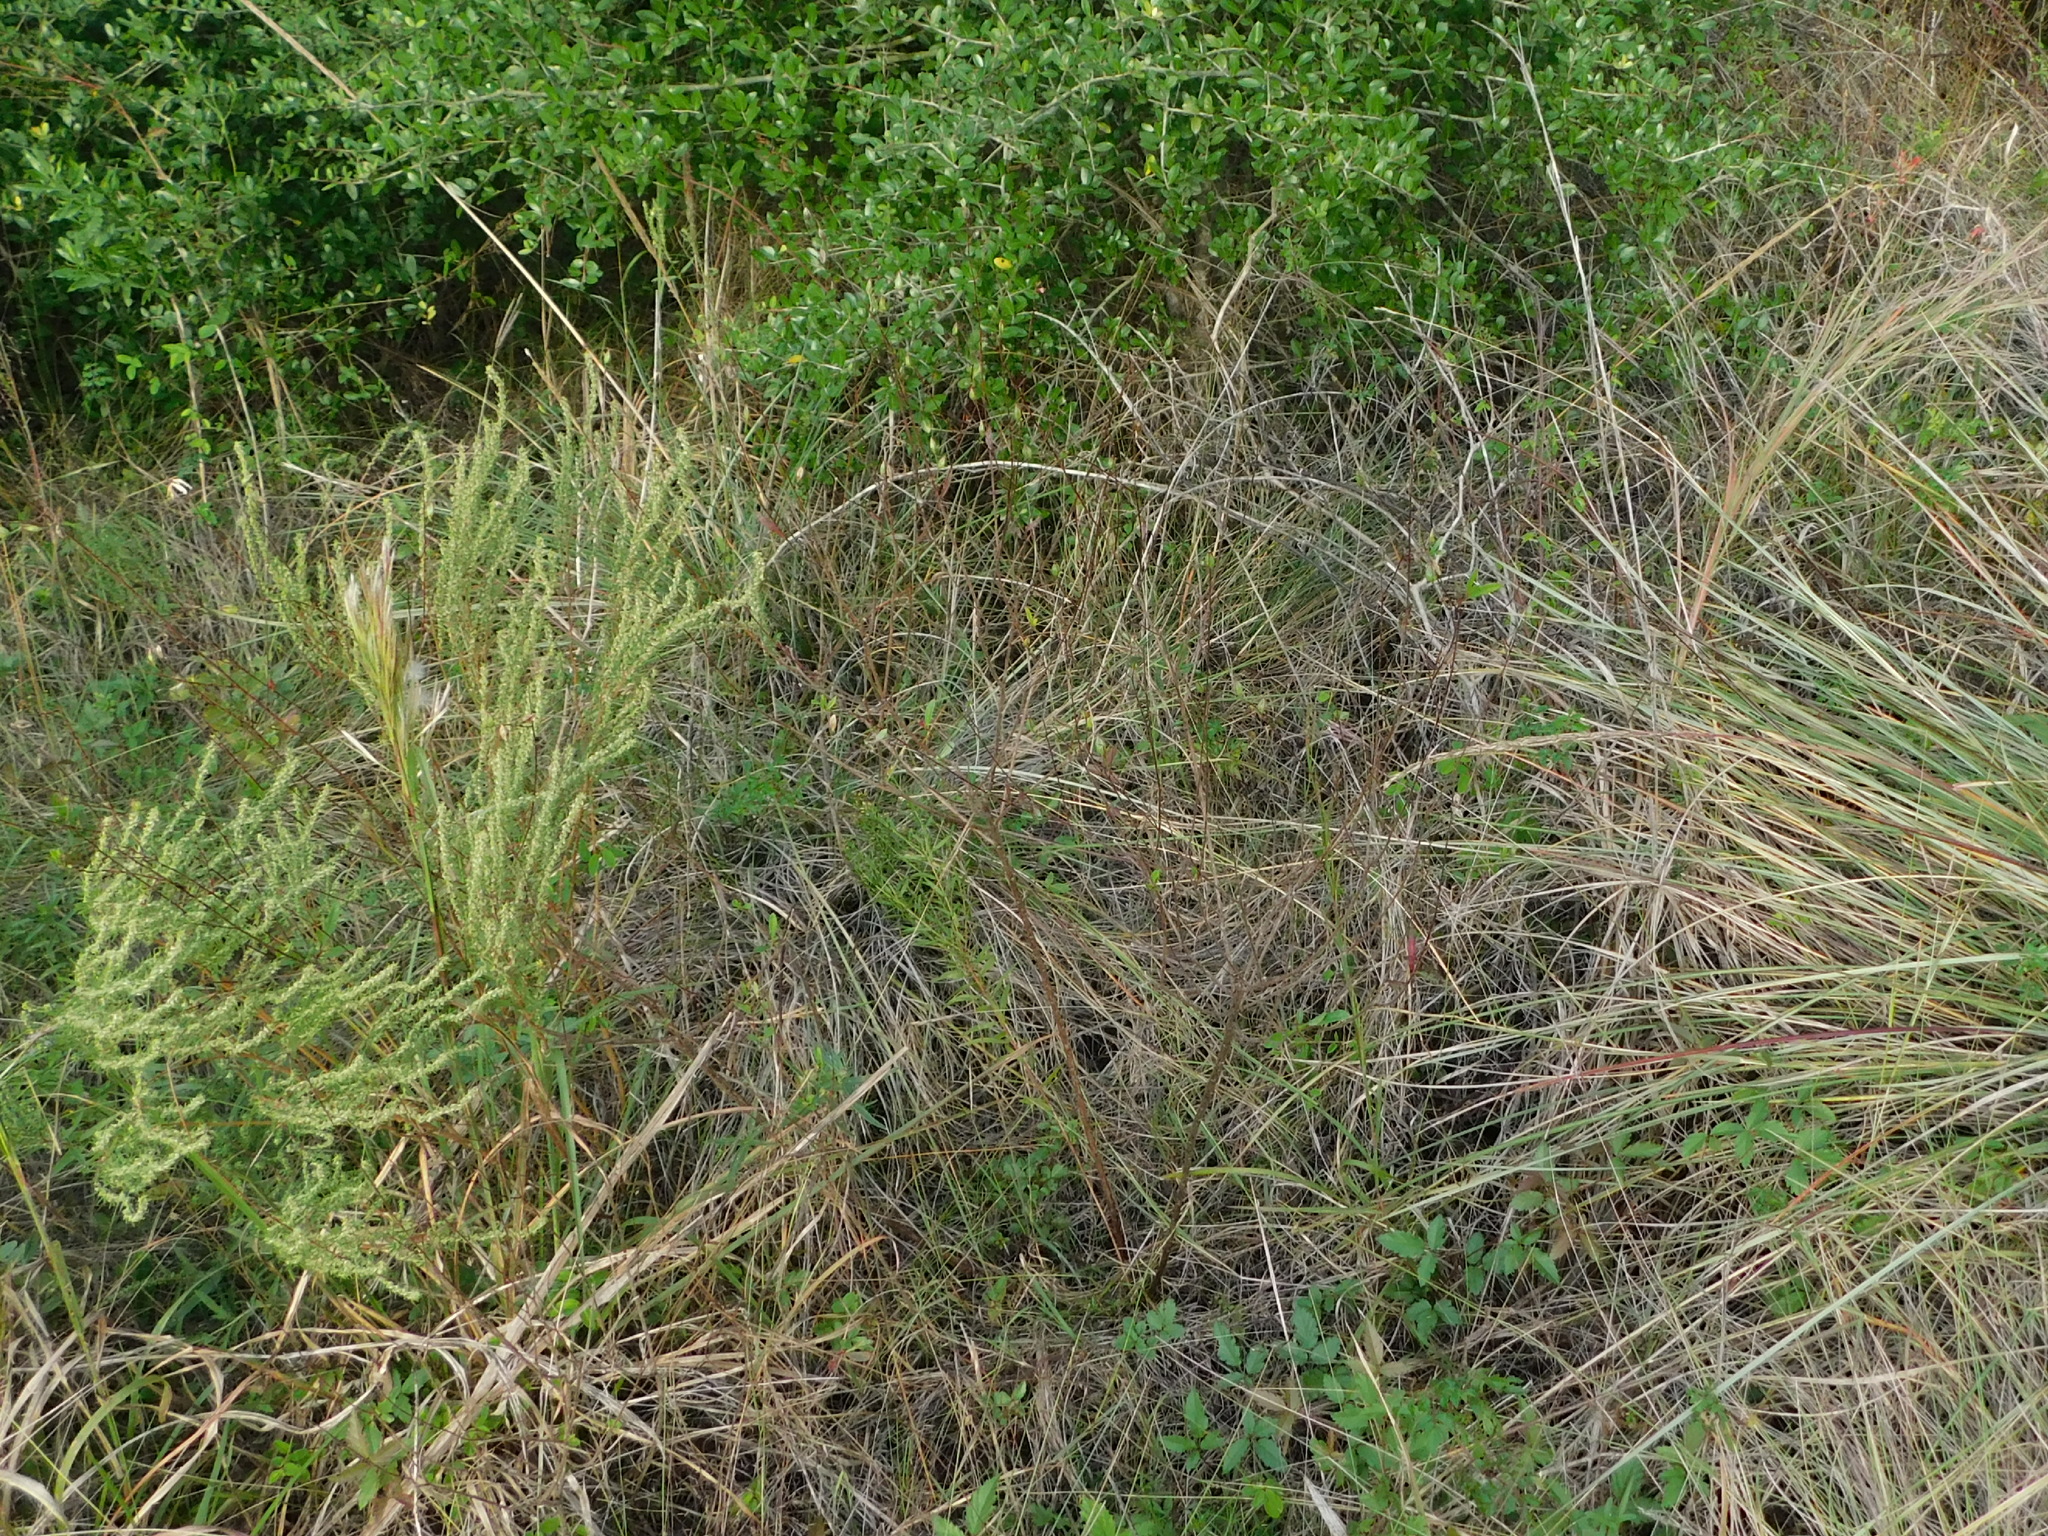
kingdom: Plantae
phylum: Tracheophyta
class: Magnoliopsida
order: Myrtales
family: Onagraceae
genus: Oenothera
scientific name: Oenothera lindheimeri
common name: Lindheimer's beeblossom
